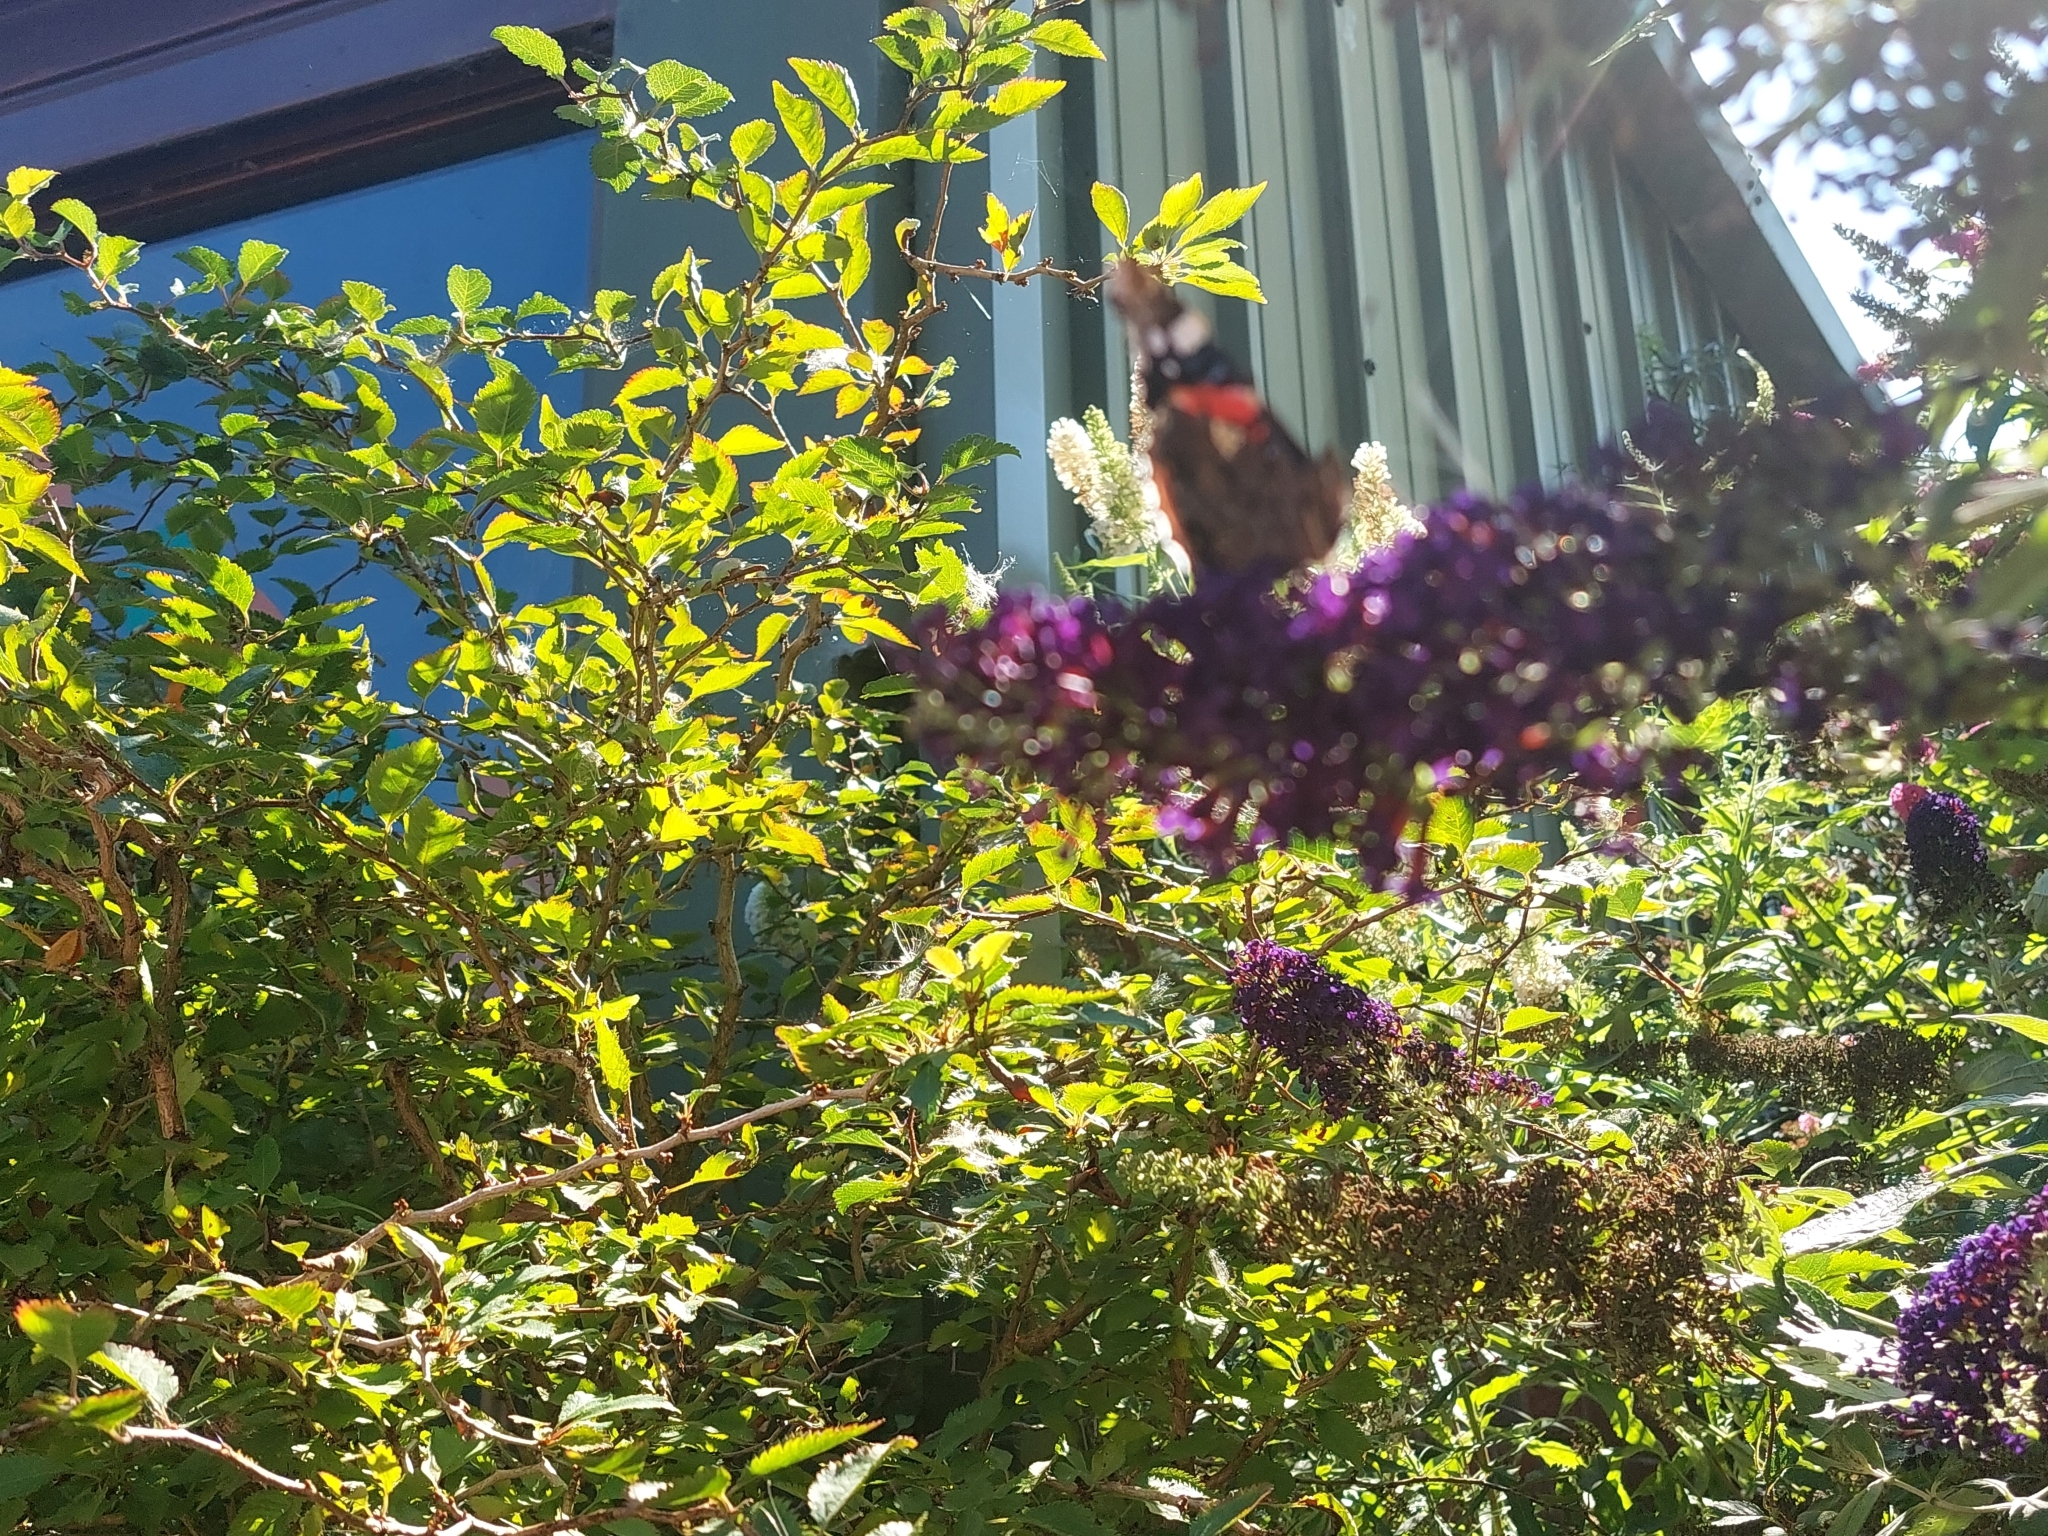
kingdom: Animalia
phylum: Arthropoda
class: Insecta
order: Lepidoptera
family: Nymphalidae
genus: Vanessa
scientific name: Vanessa atalanta
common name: Red admiral
